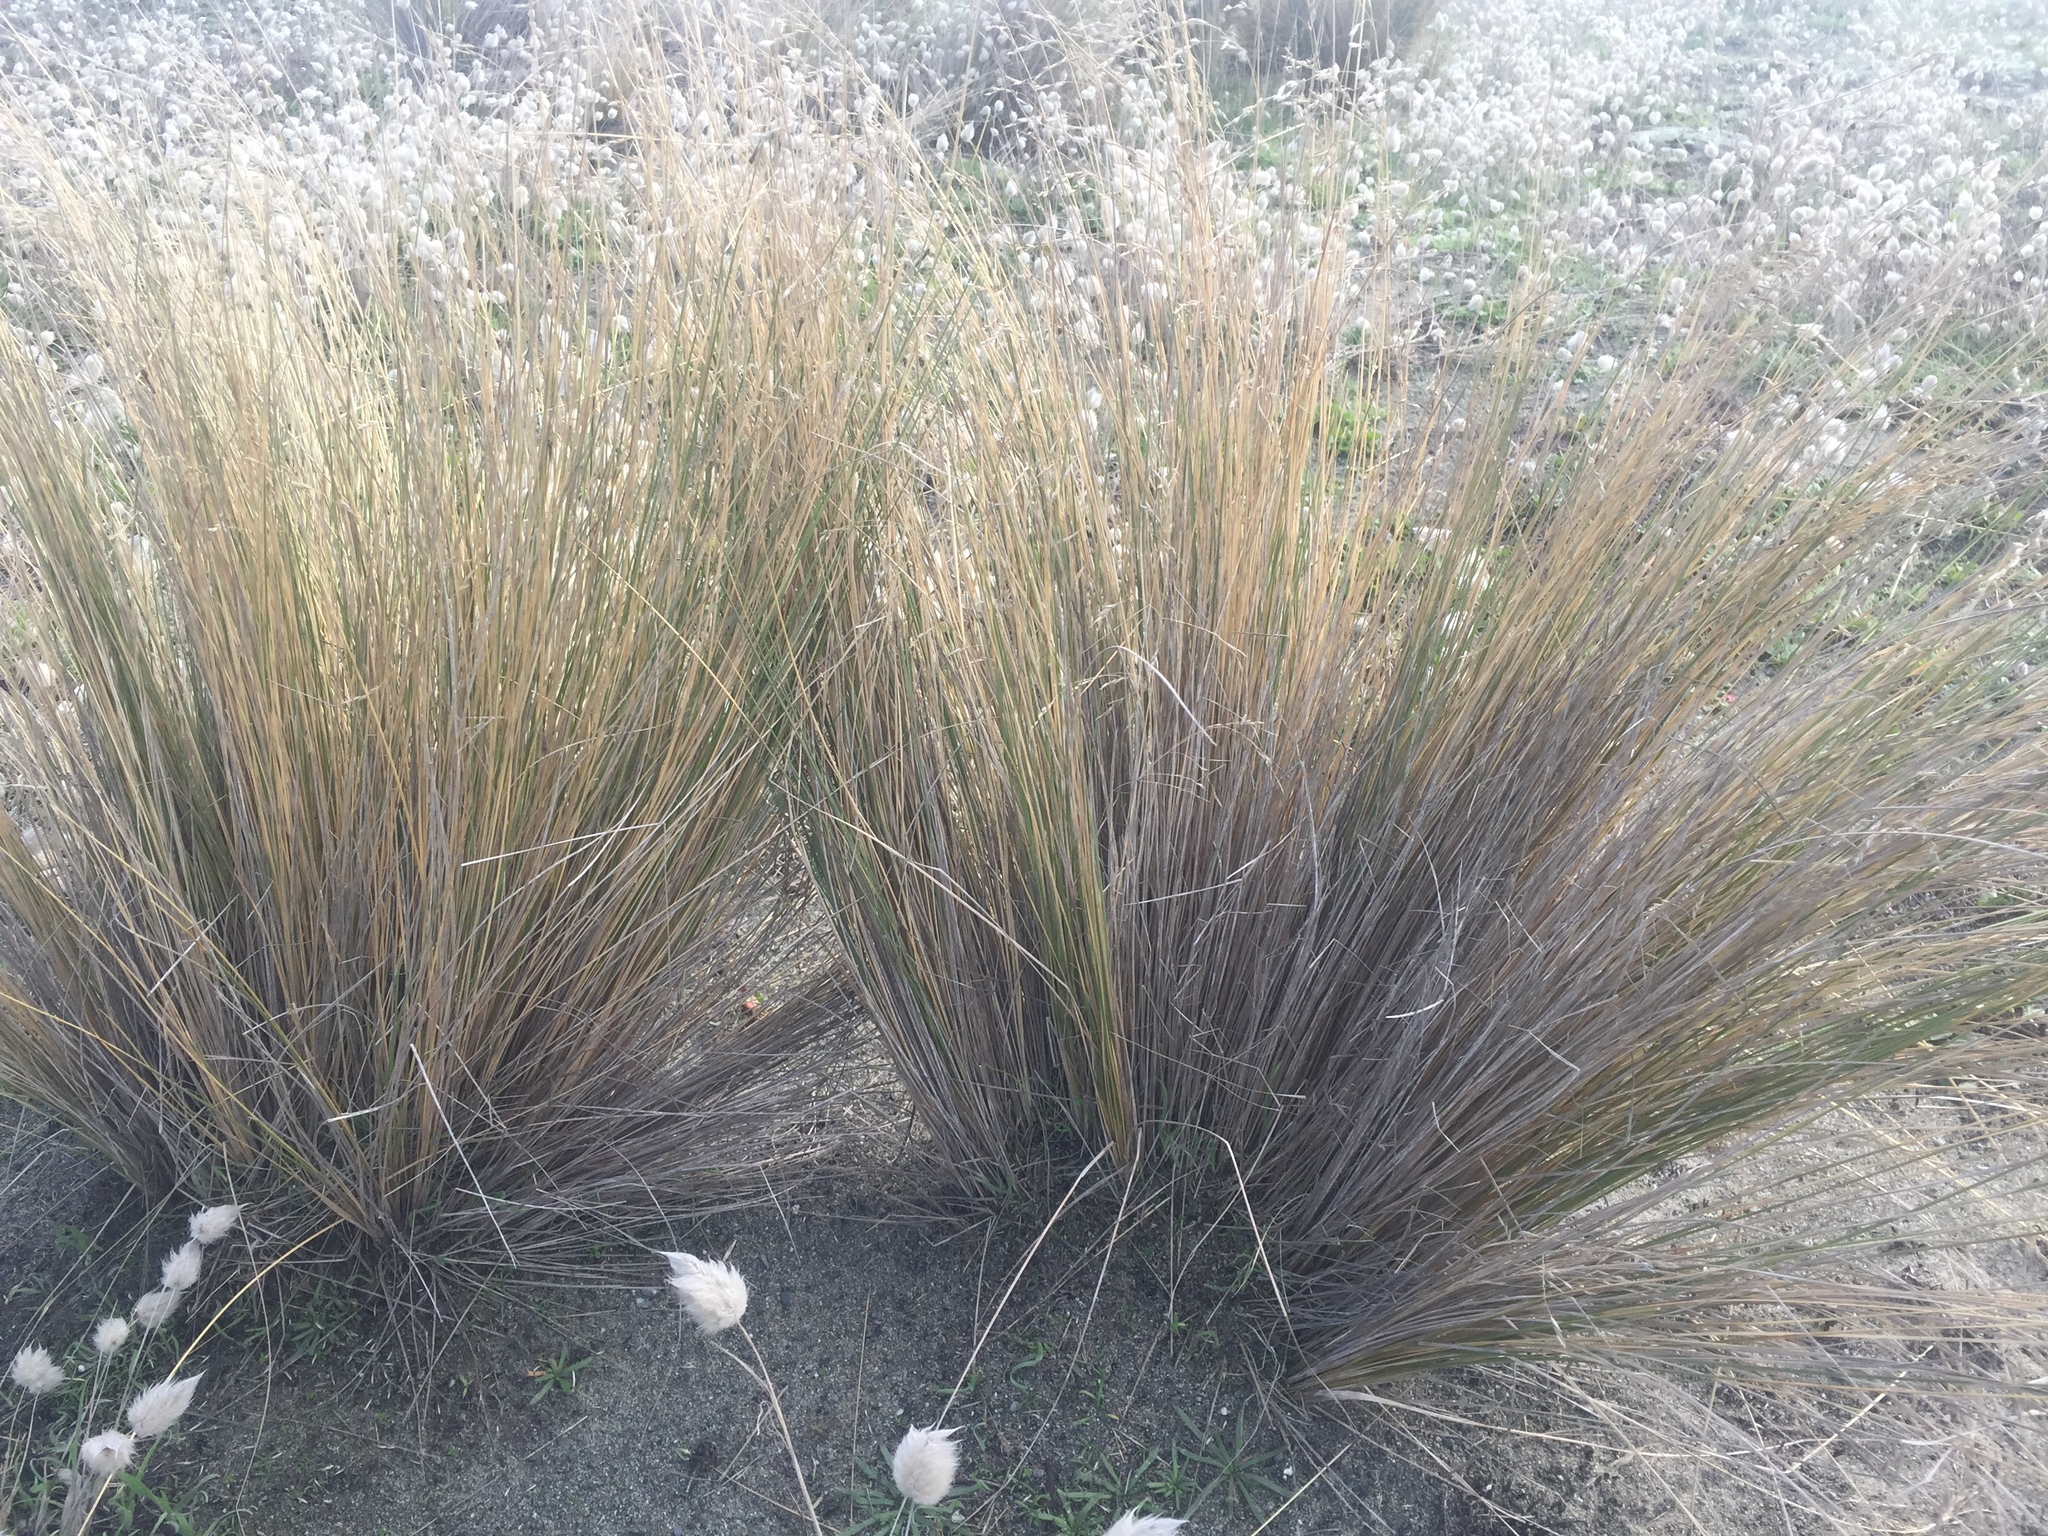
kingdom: Plantae
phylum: Tracheophyta
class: Liliopsida
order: Poales
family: Poaceae
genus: Poa
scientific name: Poa cita
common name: Silver tussock
